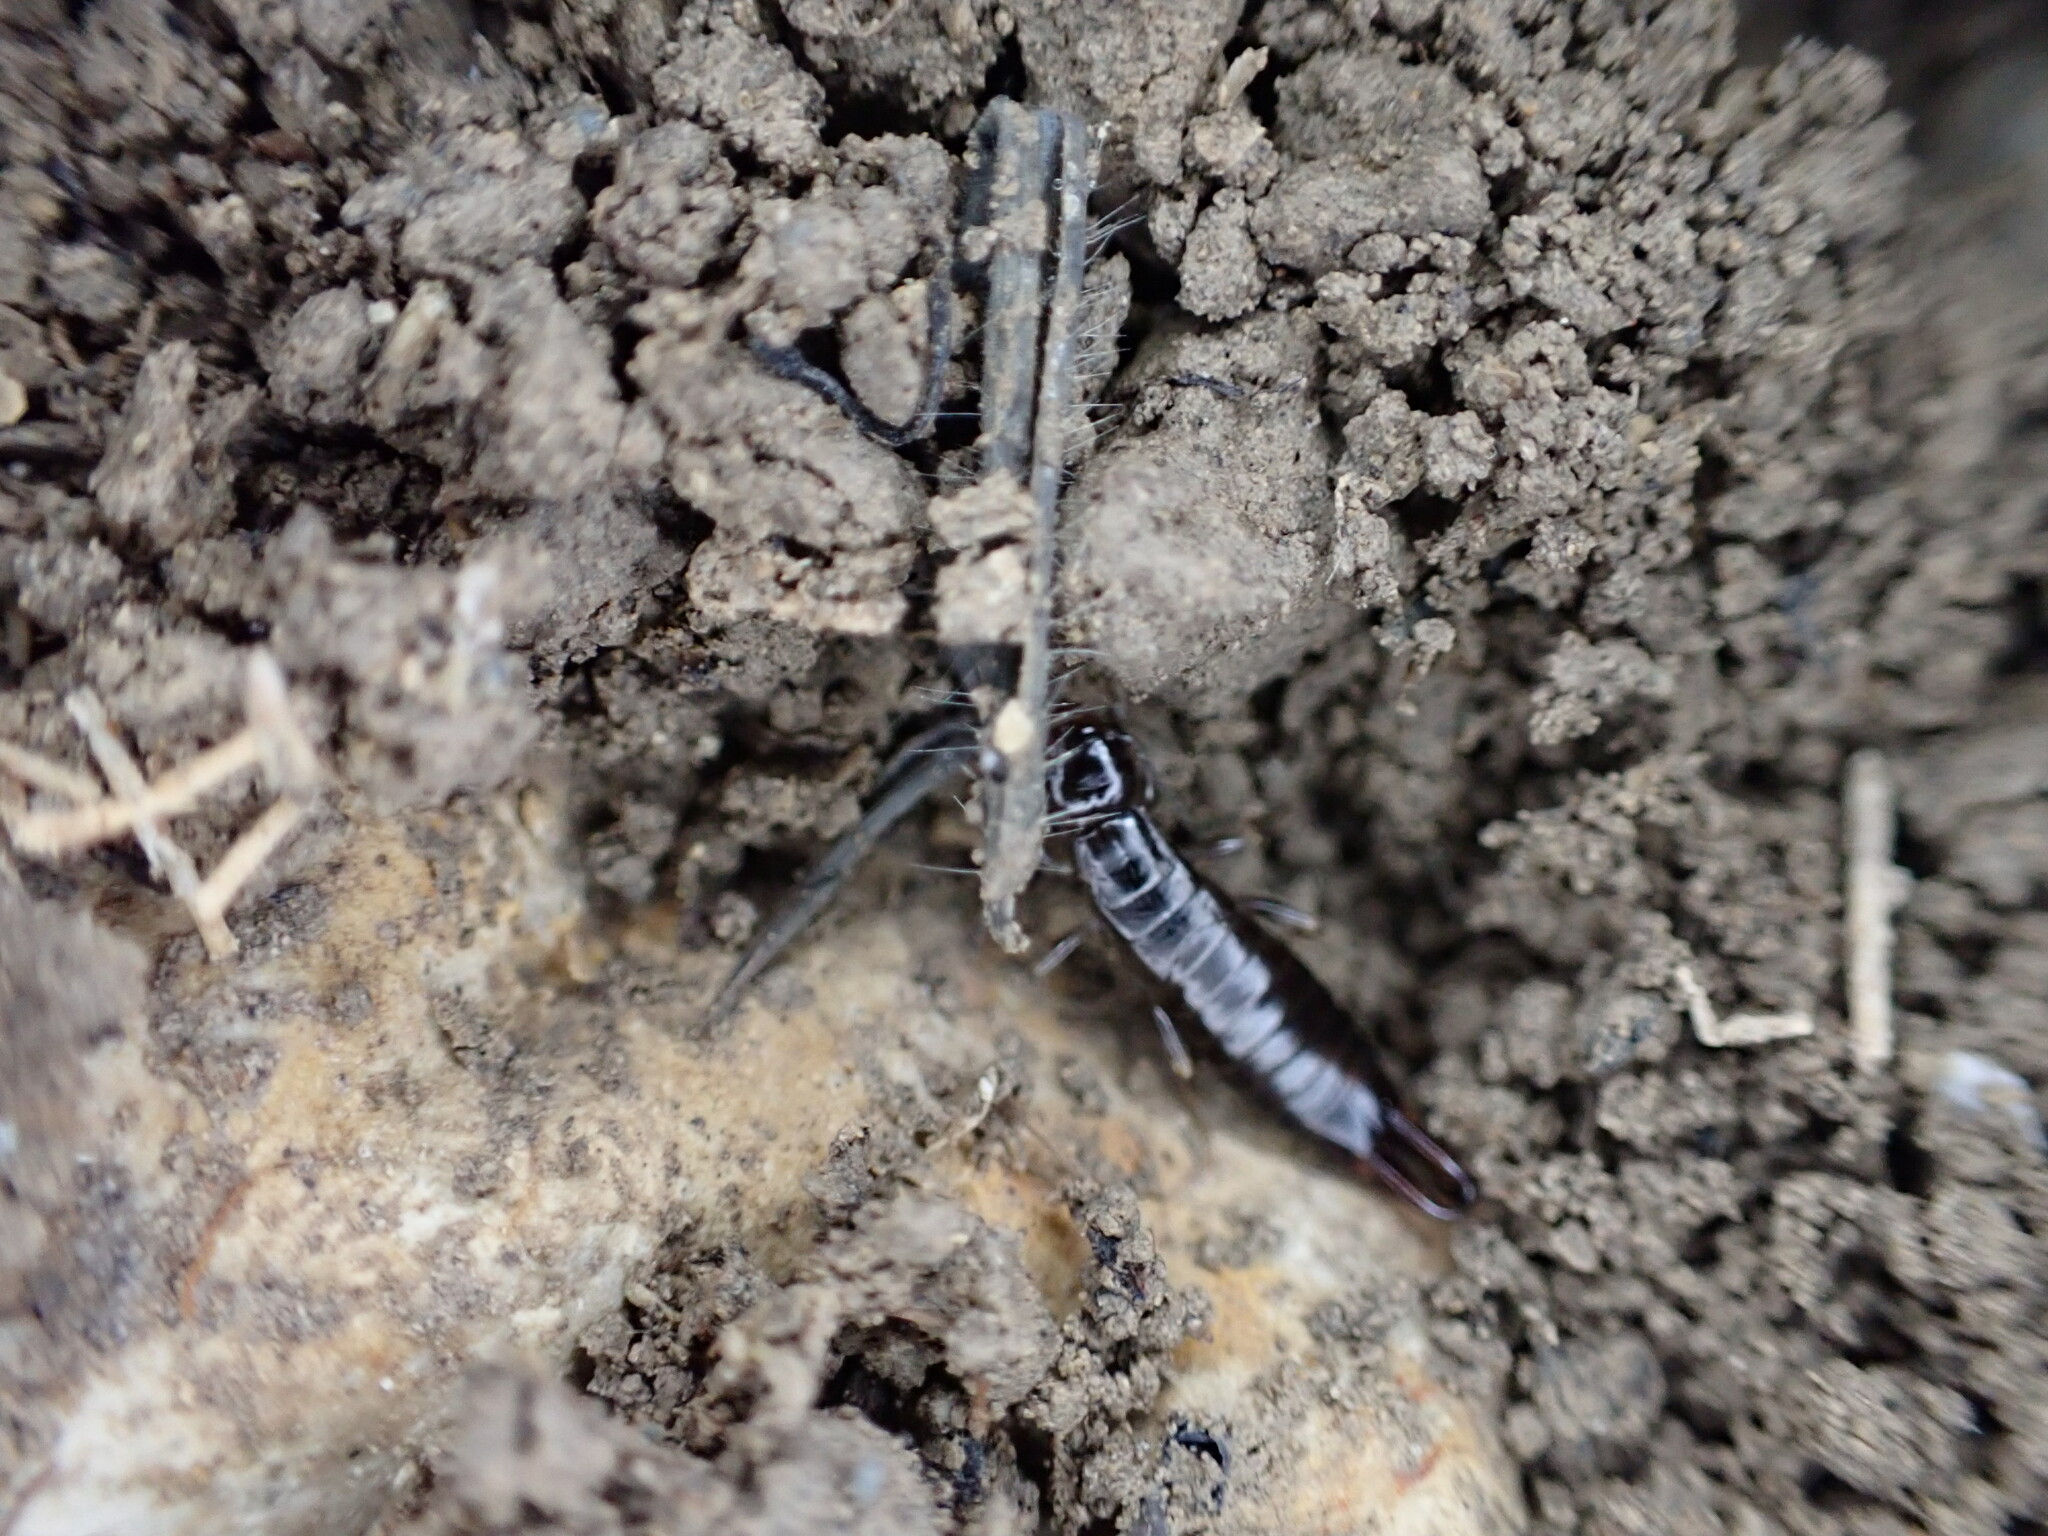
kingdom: Animalia
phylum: Arthropoda
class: Insecta
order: Dermaptera
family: Anisolabididae
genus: Euborellia
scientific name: Euborellia moesta
